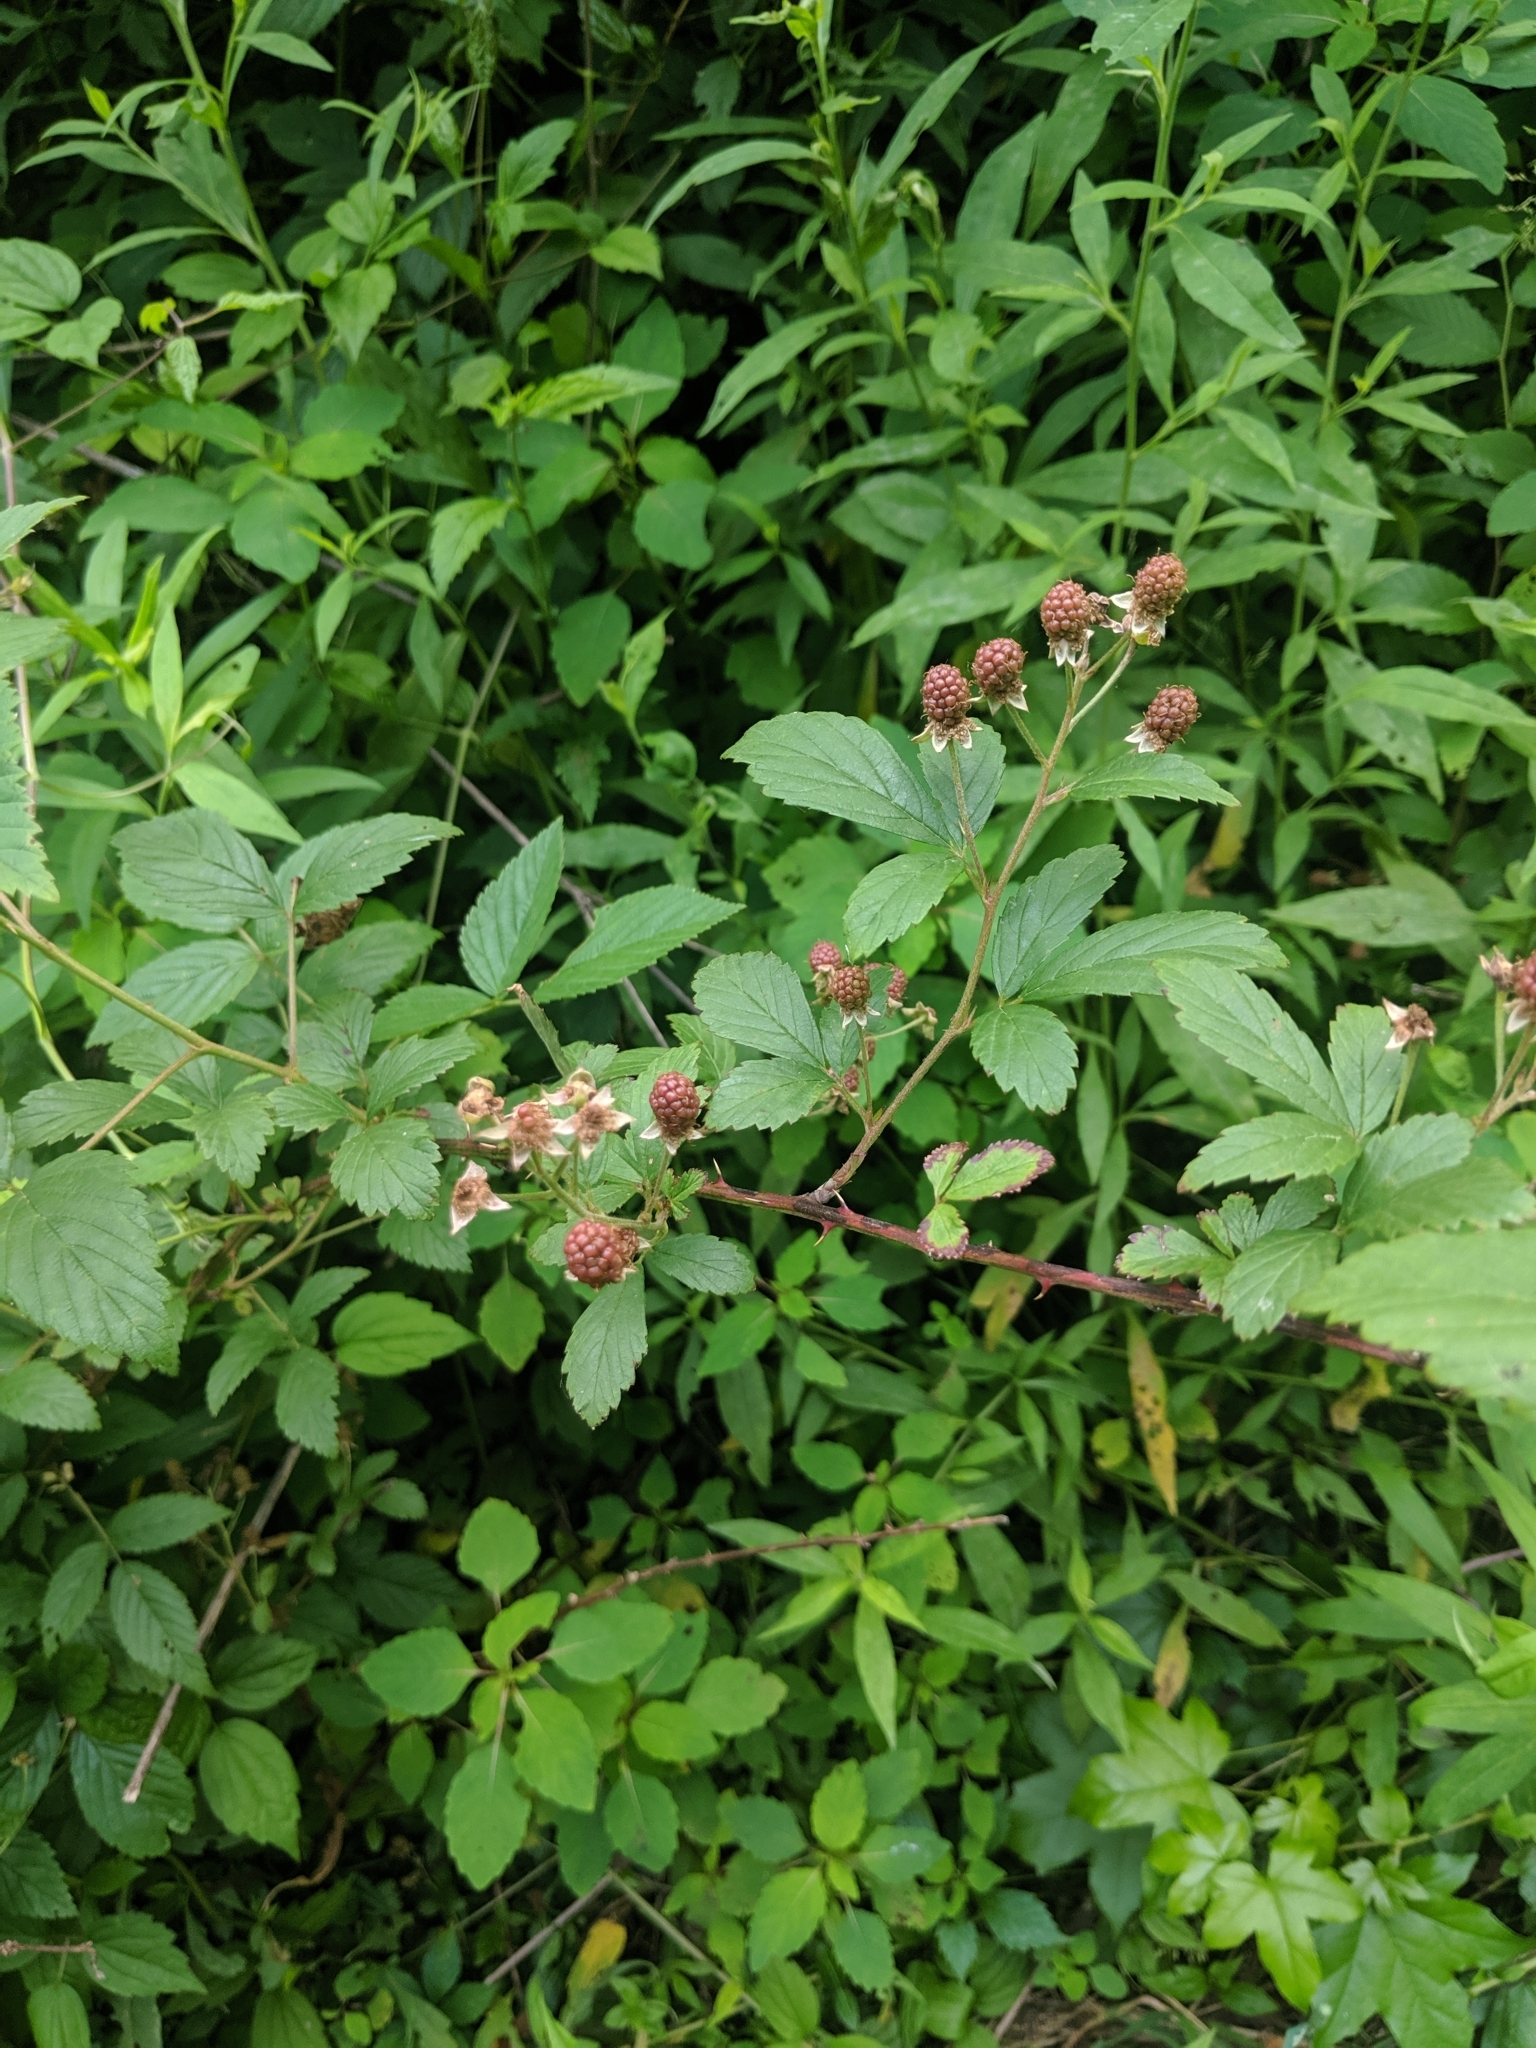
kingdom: Plantae
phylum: Tracheophyta
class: Magnoliopsida
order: Rosales
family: Rosaceae
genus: Rubus
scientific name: Rubus allegheniensis
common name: Allegheny blackberry
